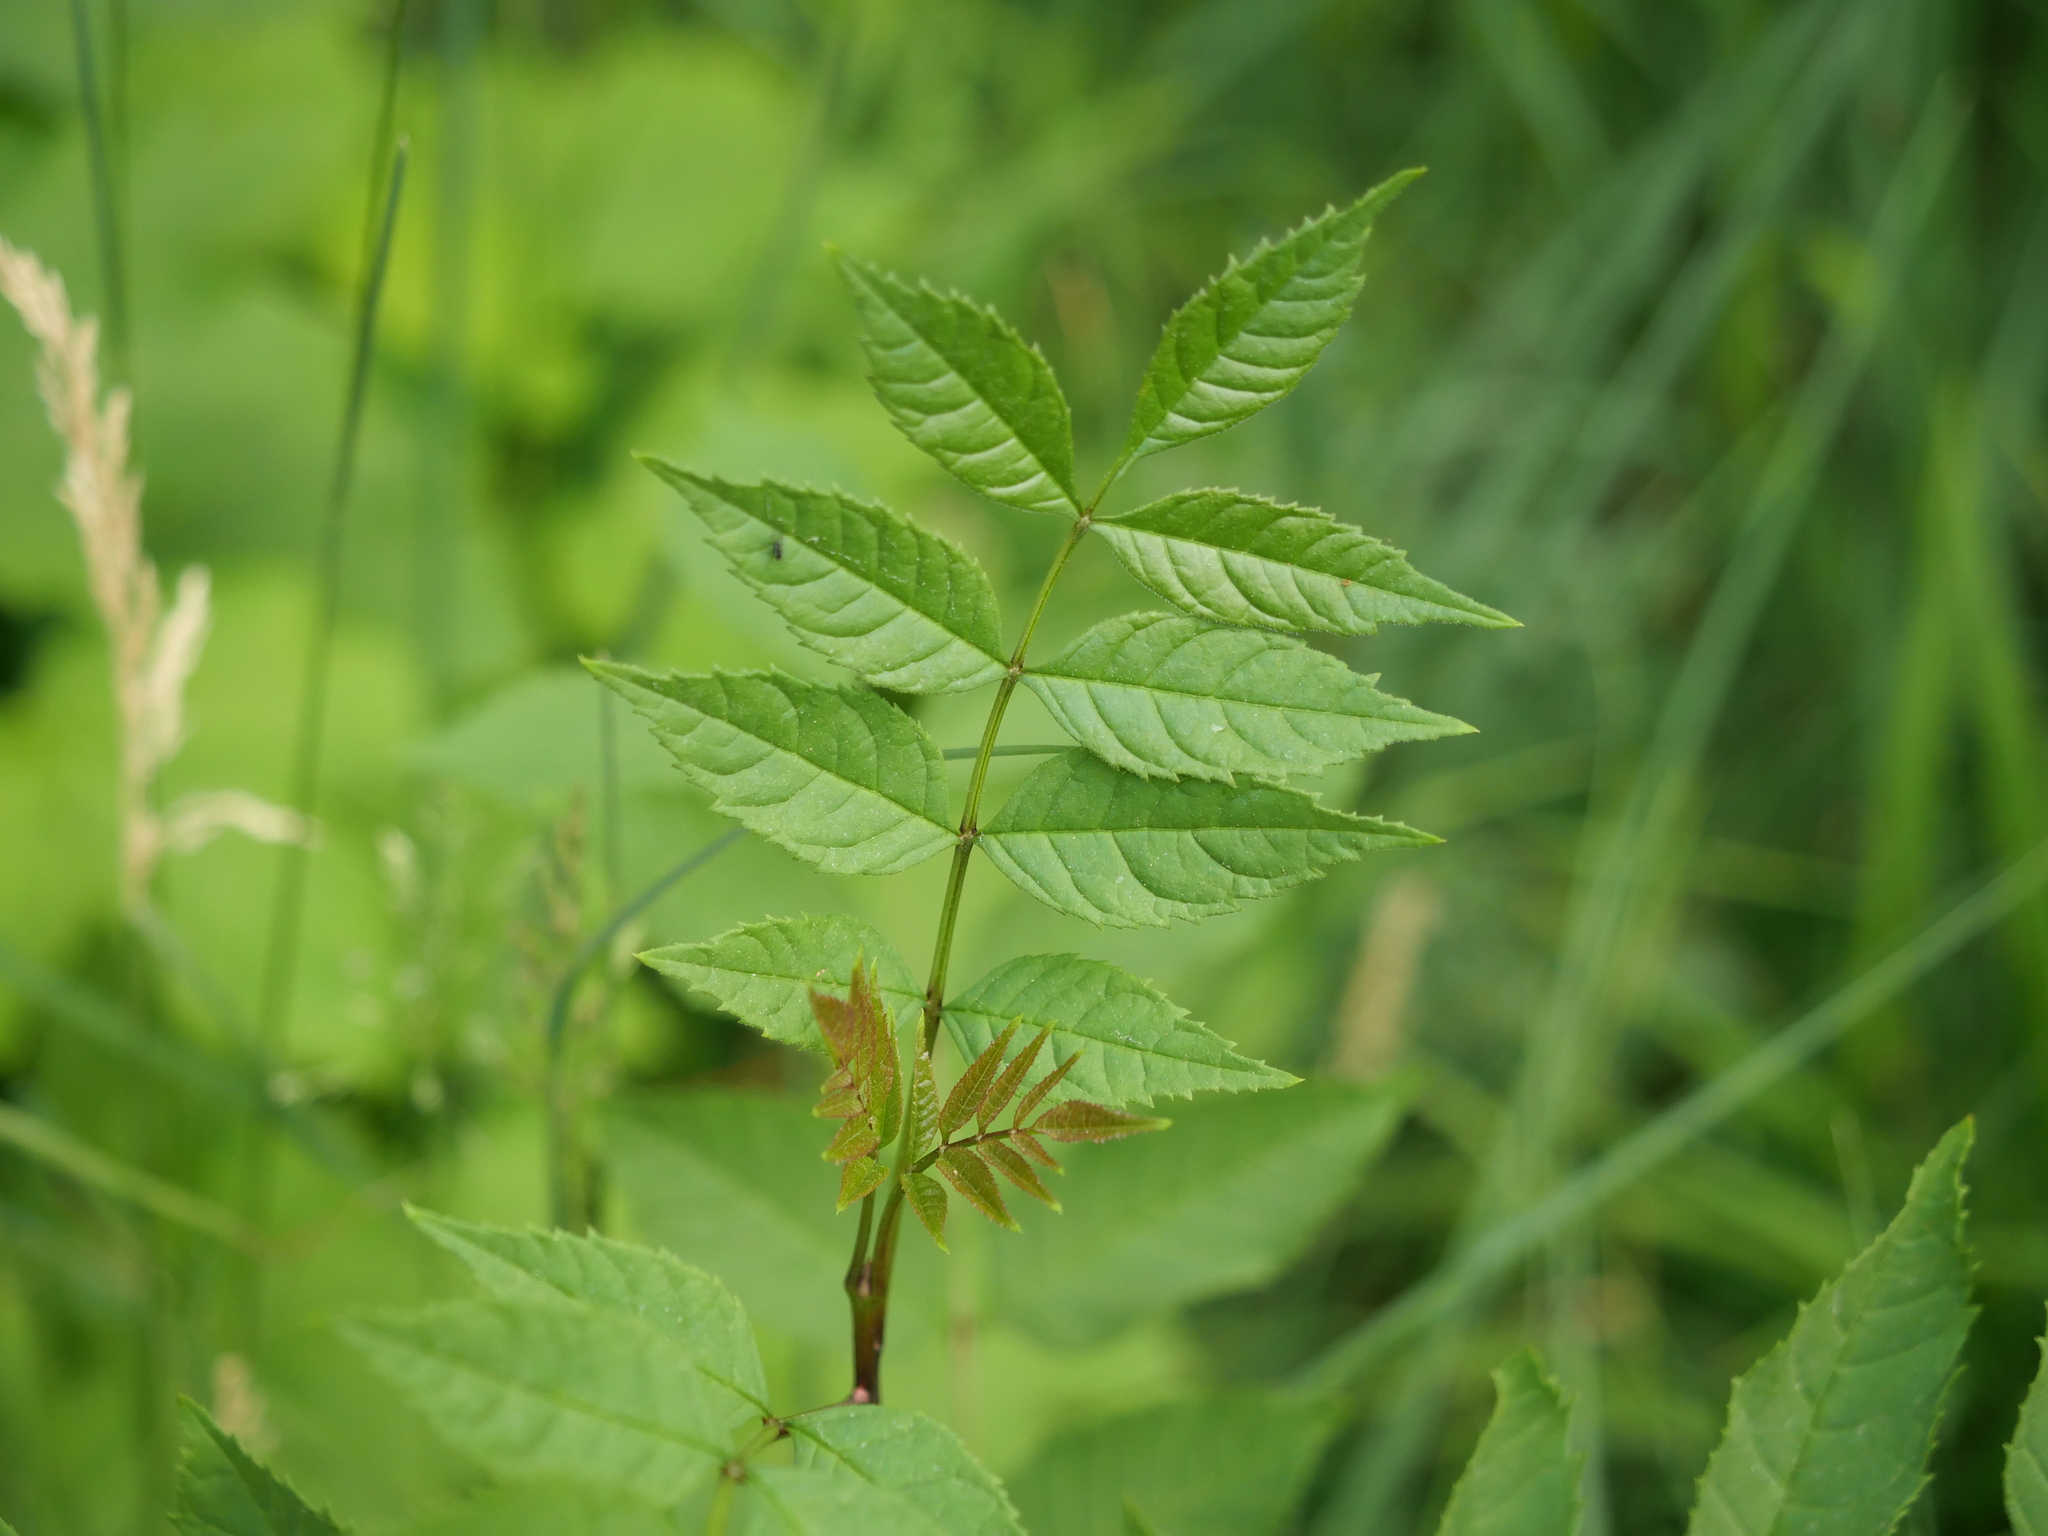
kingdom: Plantae
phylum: Tracheophyta
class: Magnoliopsida
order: Lamiales
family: Oleaceae
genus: Fraxinus
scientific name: Fraxinus excelsior
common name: European ash
